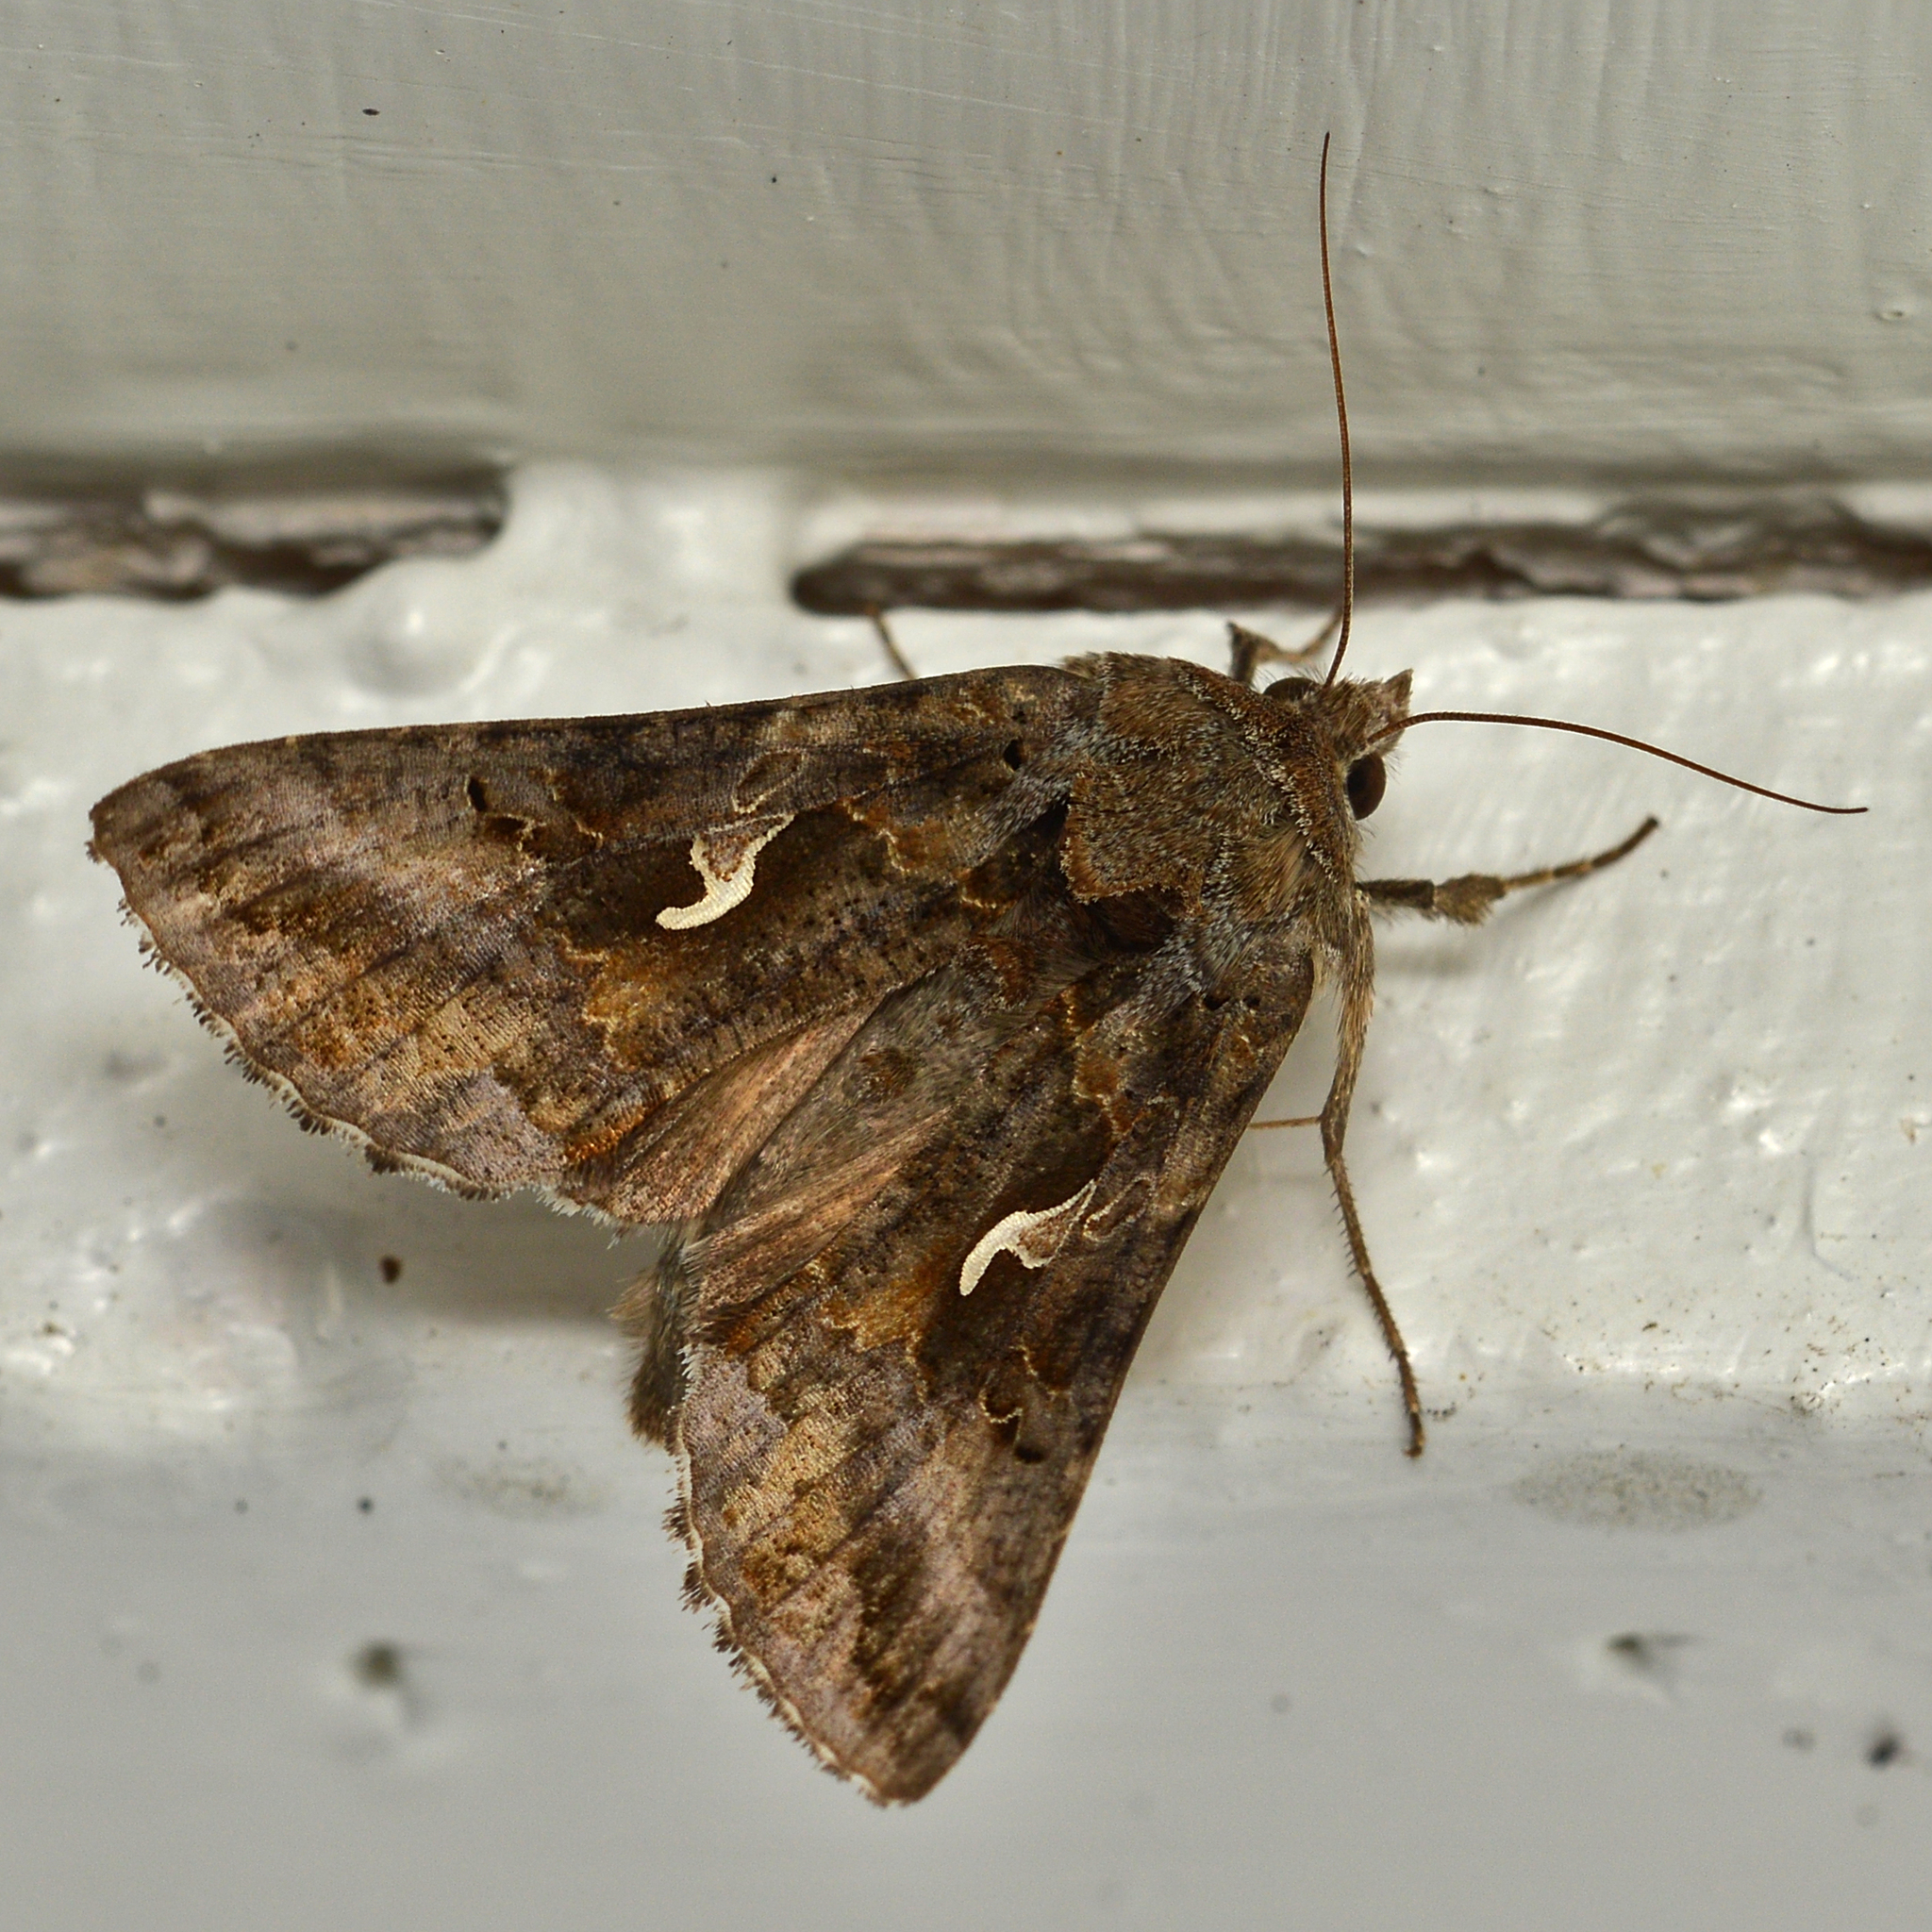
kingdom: Animalia
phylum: Arthropoda
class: Insecta
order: Lepidoptera
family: Noctuidae
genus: Autographa
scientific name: Autographa gamma
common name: Silver y
